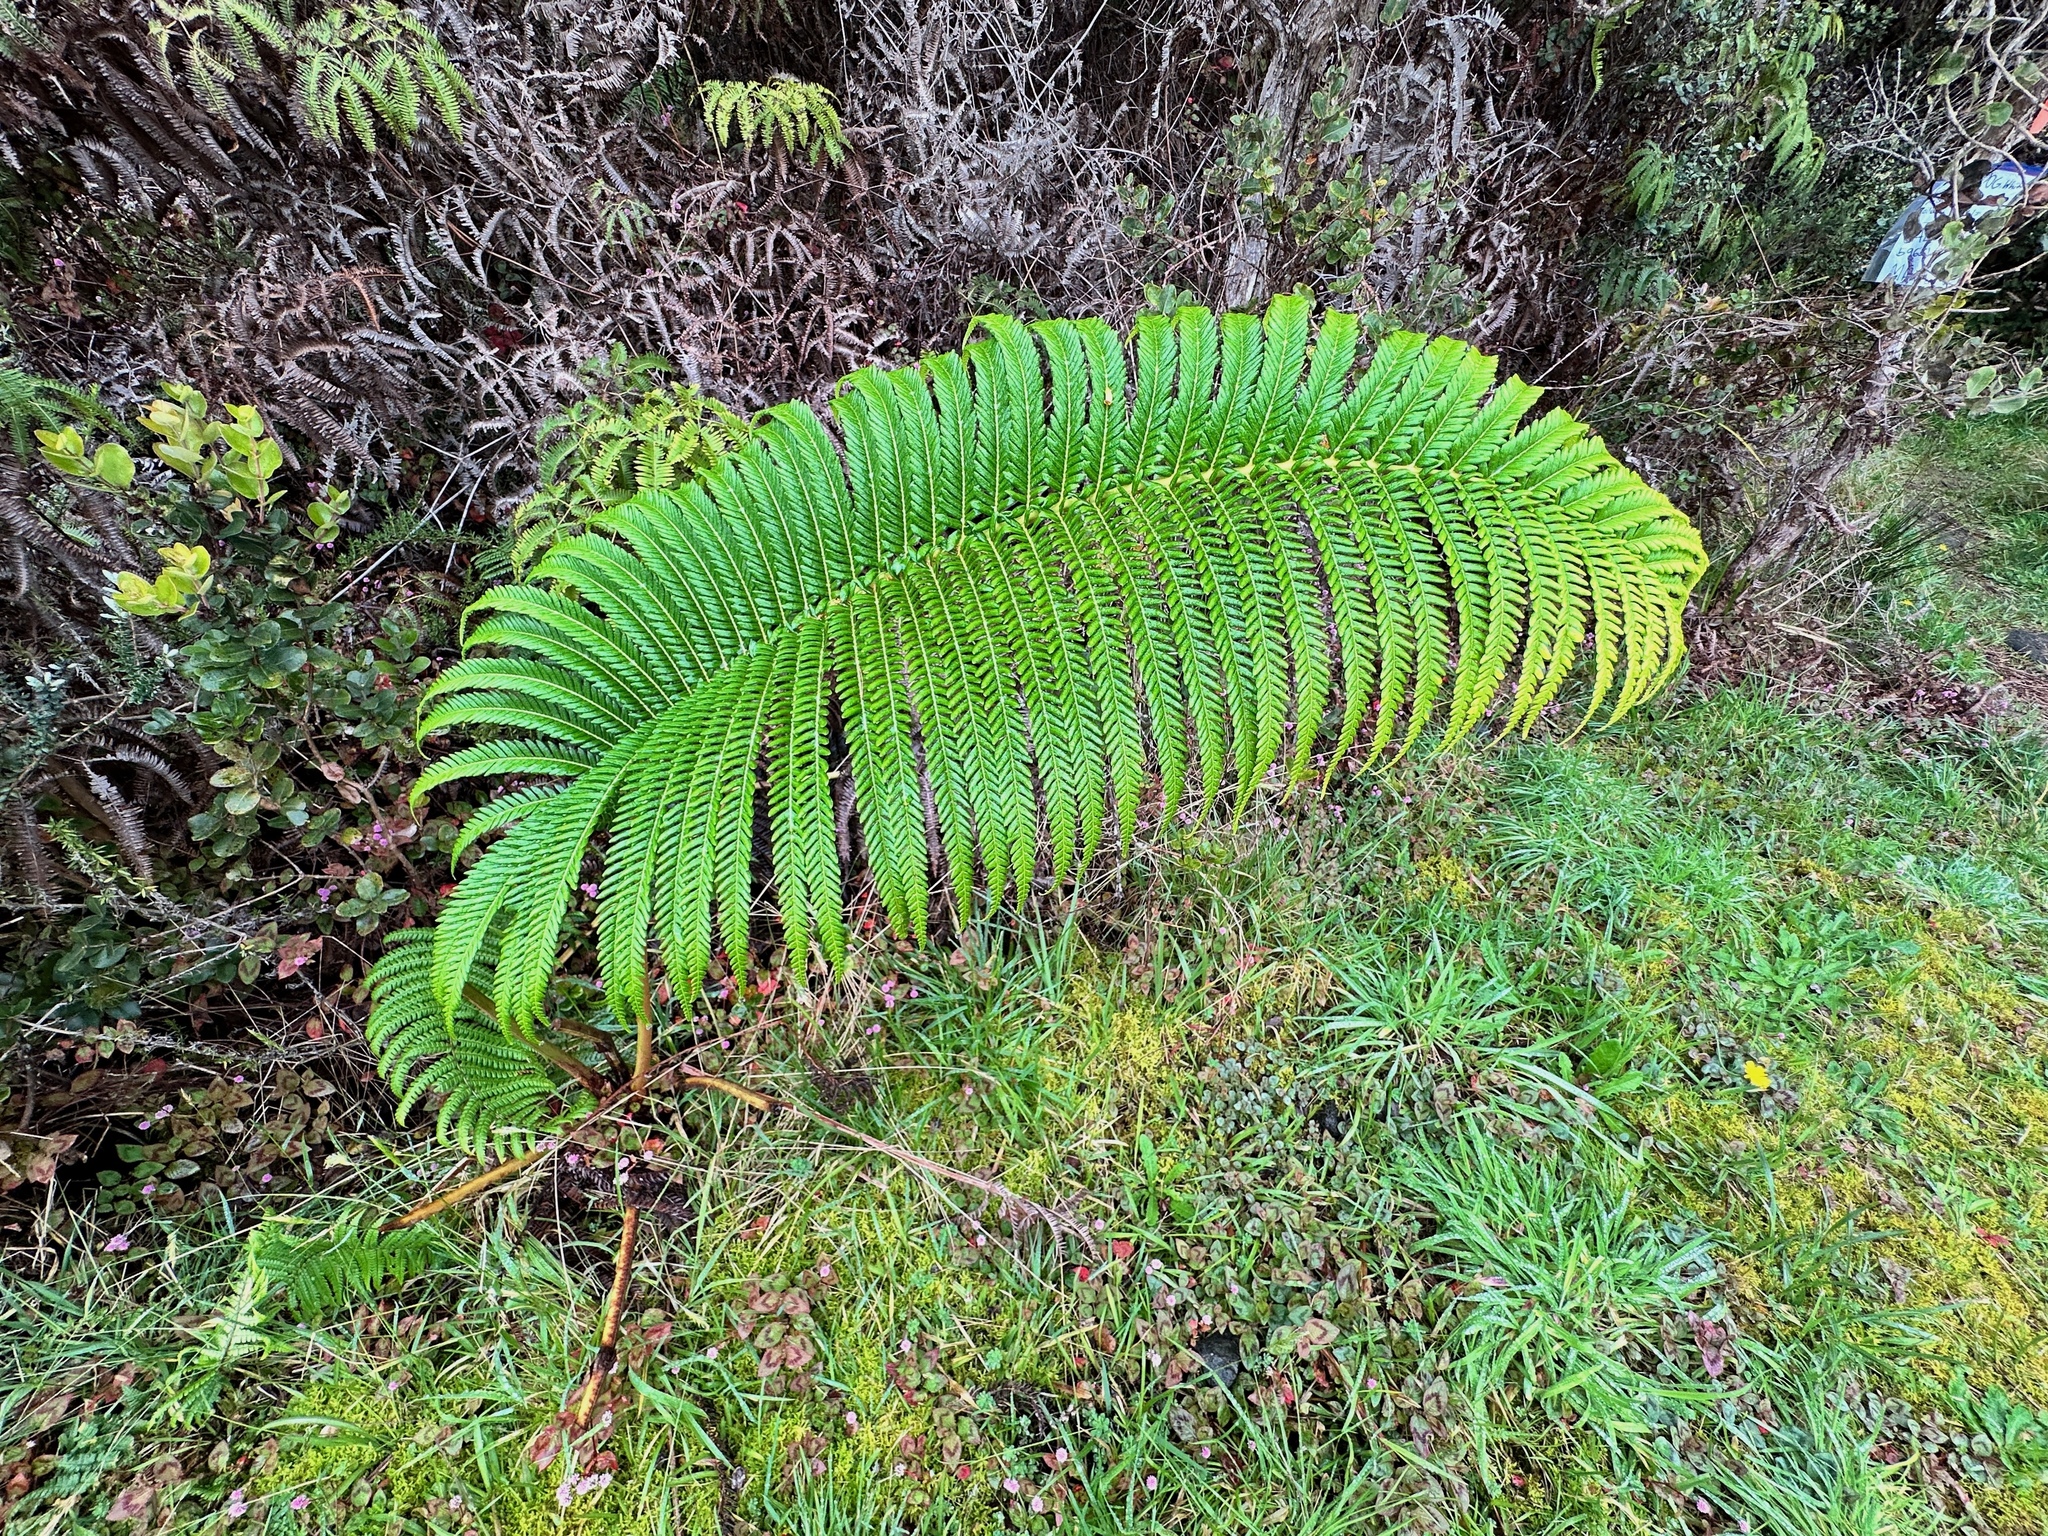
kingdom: Plantae
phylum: Tracheophyta
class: Polypodiopsida
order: Polypodiales
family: Blechnaceae
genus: Sadleria
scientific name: Sadleria cyatheoides
